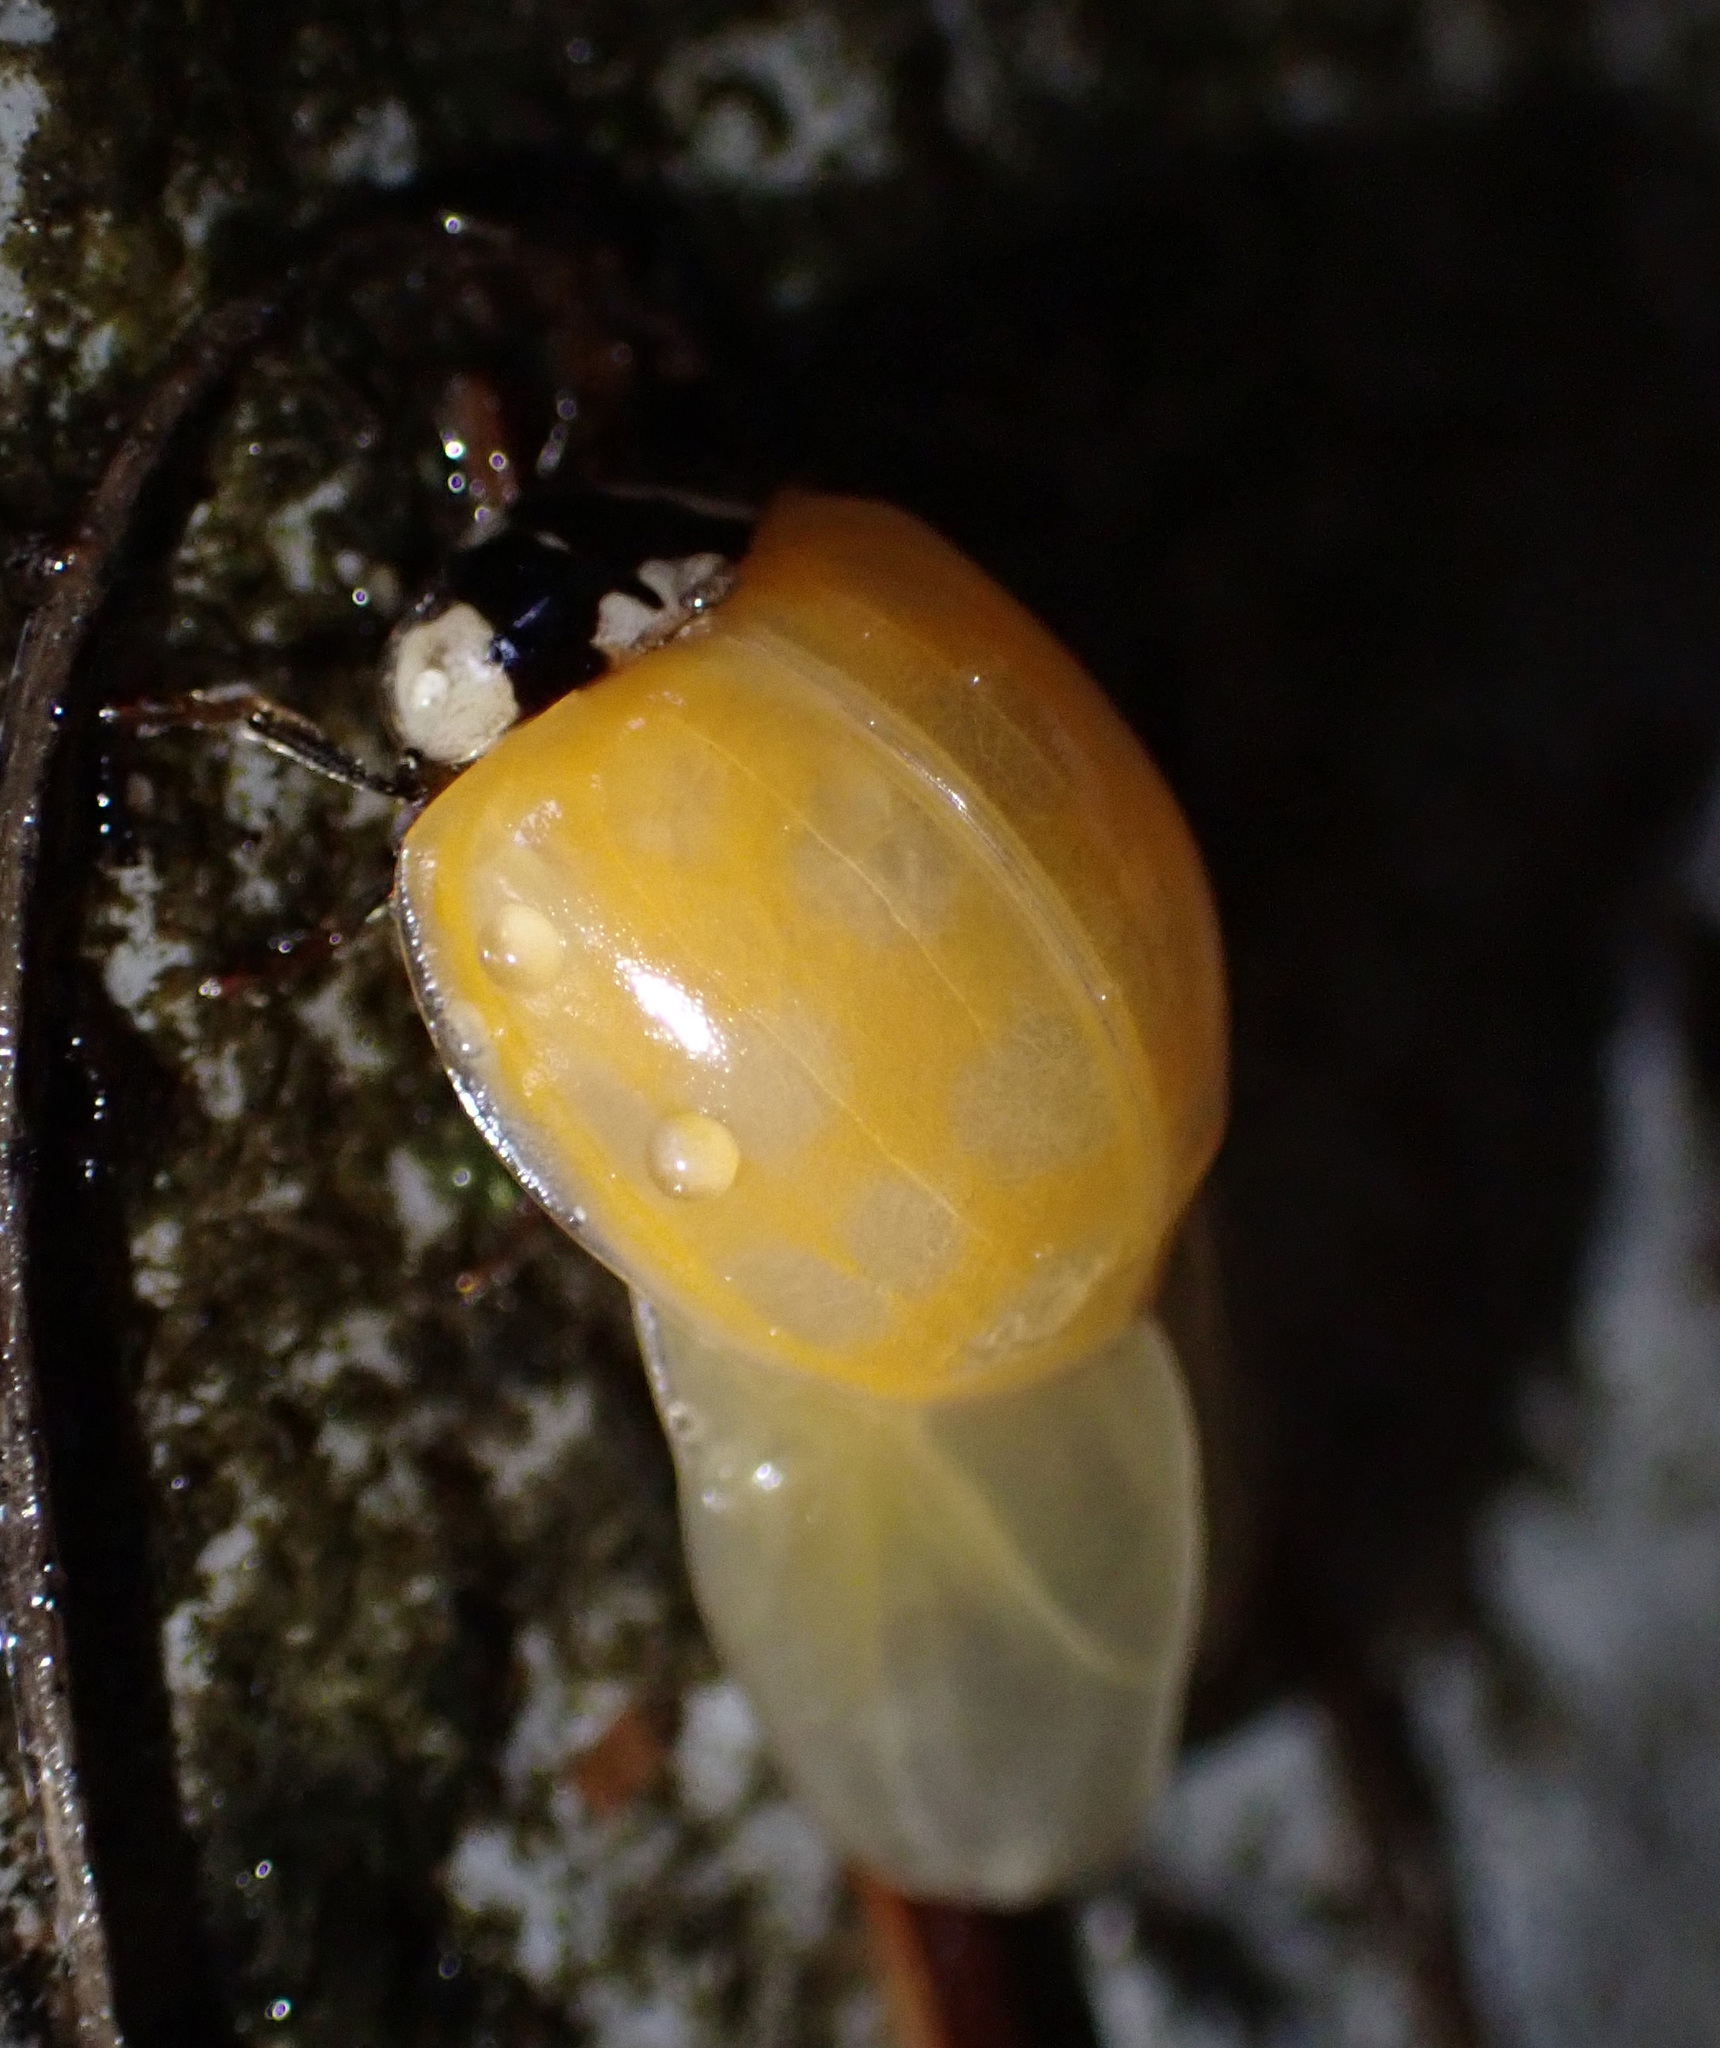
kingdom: Animalia
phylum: Arthropoda
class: Insecta
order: Coleoptera
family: Coccinellidae
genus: Harmonia
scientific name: Harmonia axyridis
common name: Harlequin ladybird
